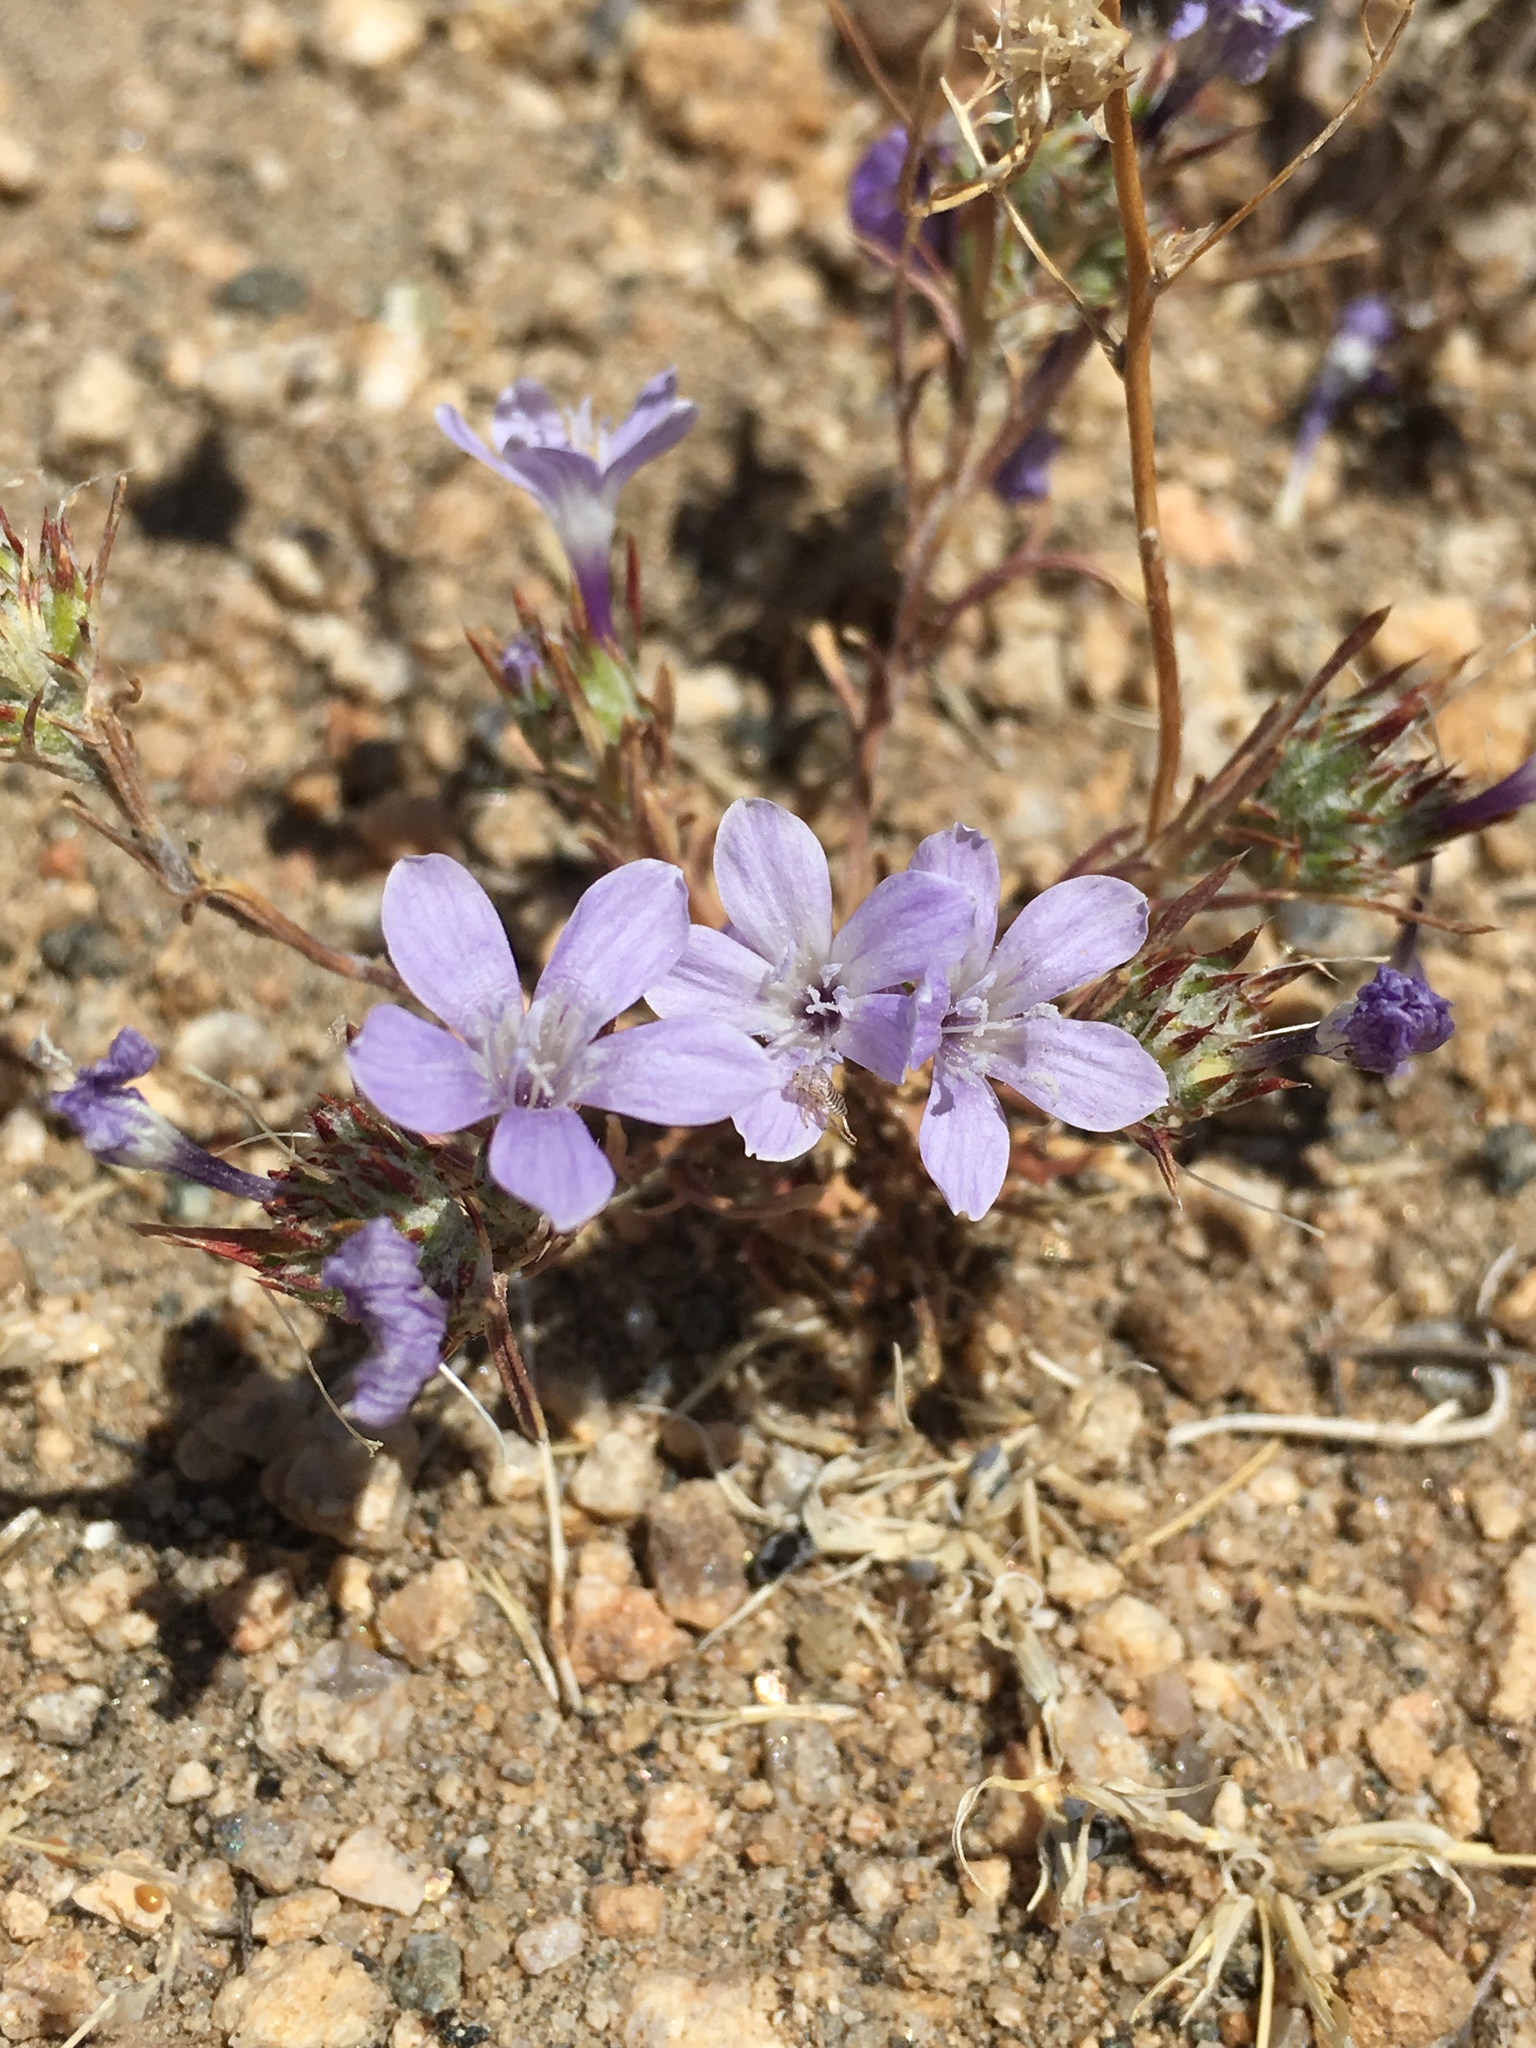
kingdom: Plantae
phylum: Tracheophyta
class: Magnoliopsida
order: Ericales
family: Polemoniaceae
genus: Eriastrum
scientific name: Eriastrum eremicum
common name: Desert eriastrum
